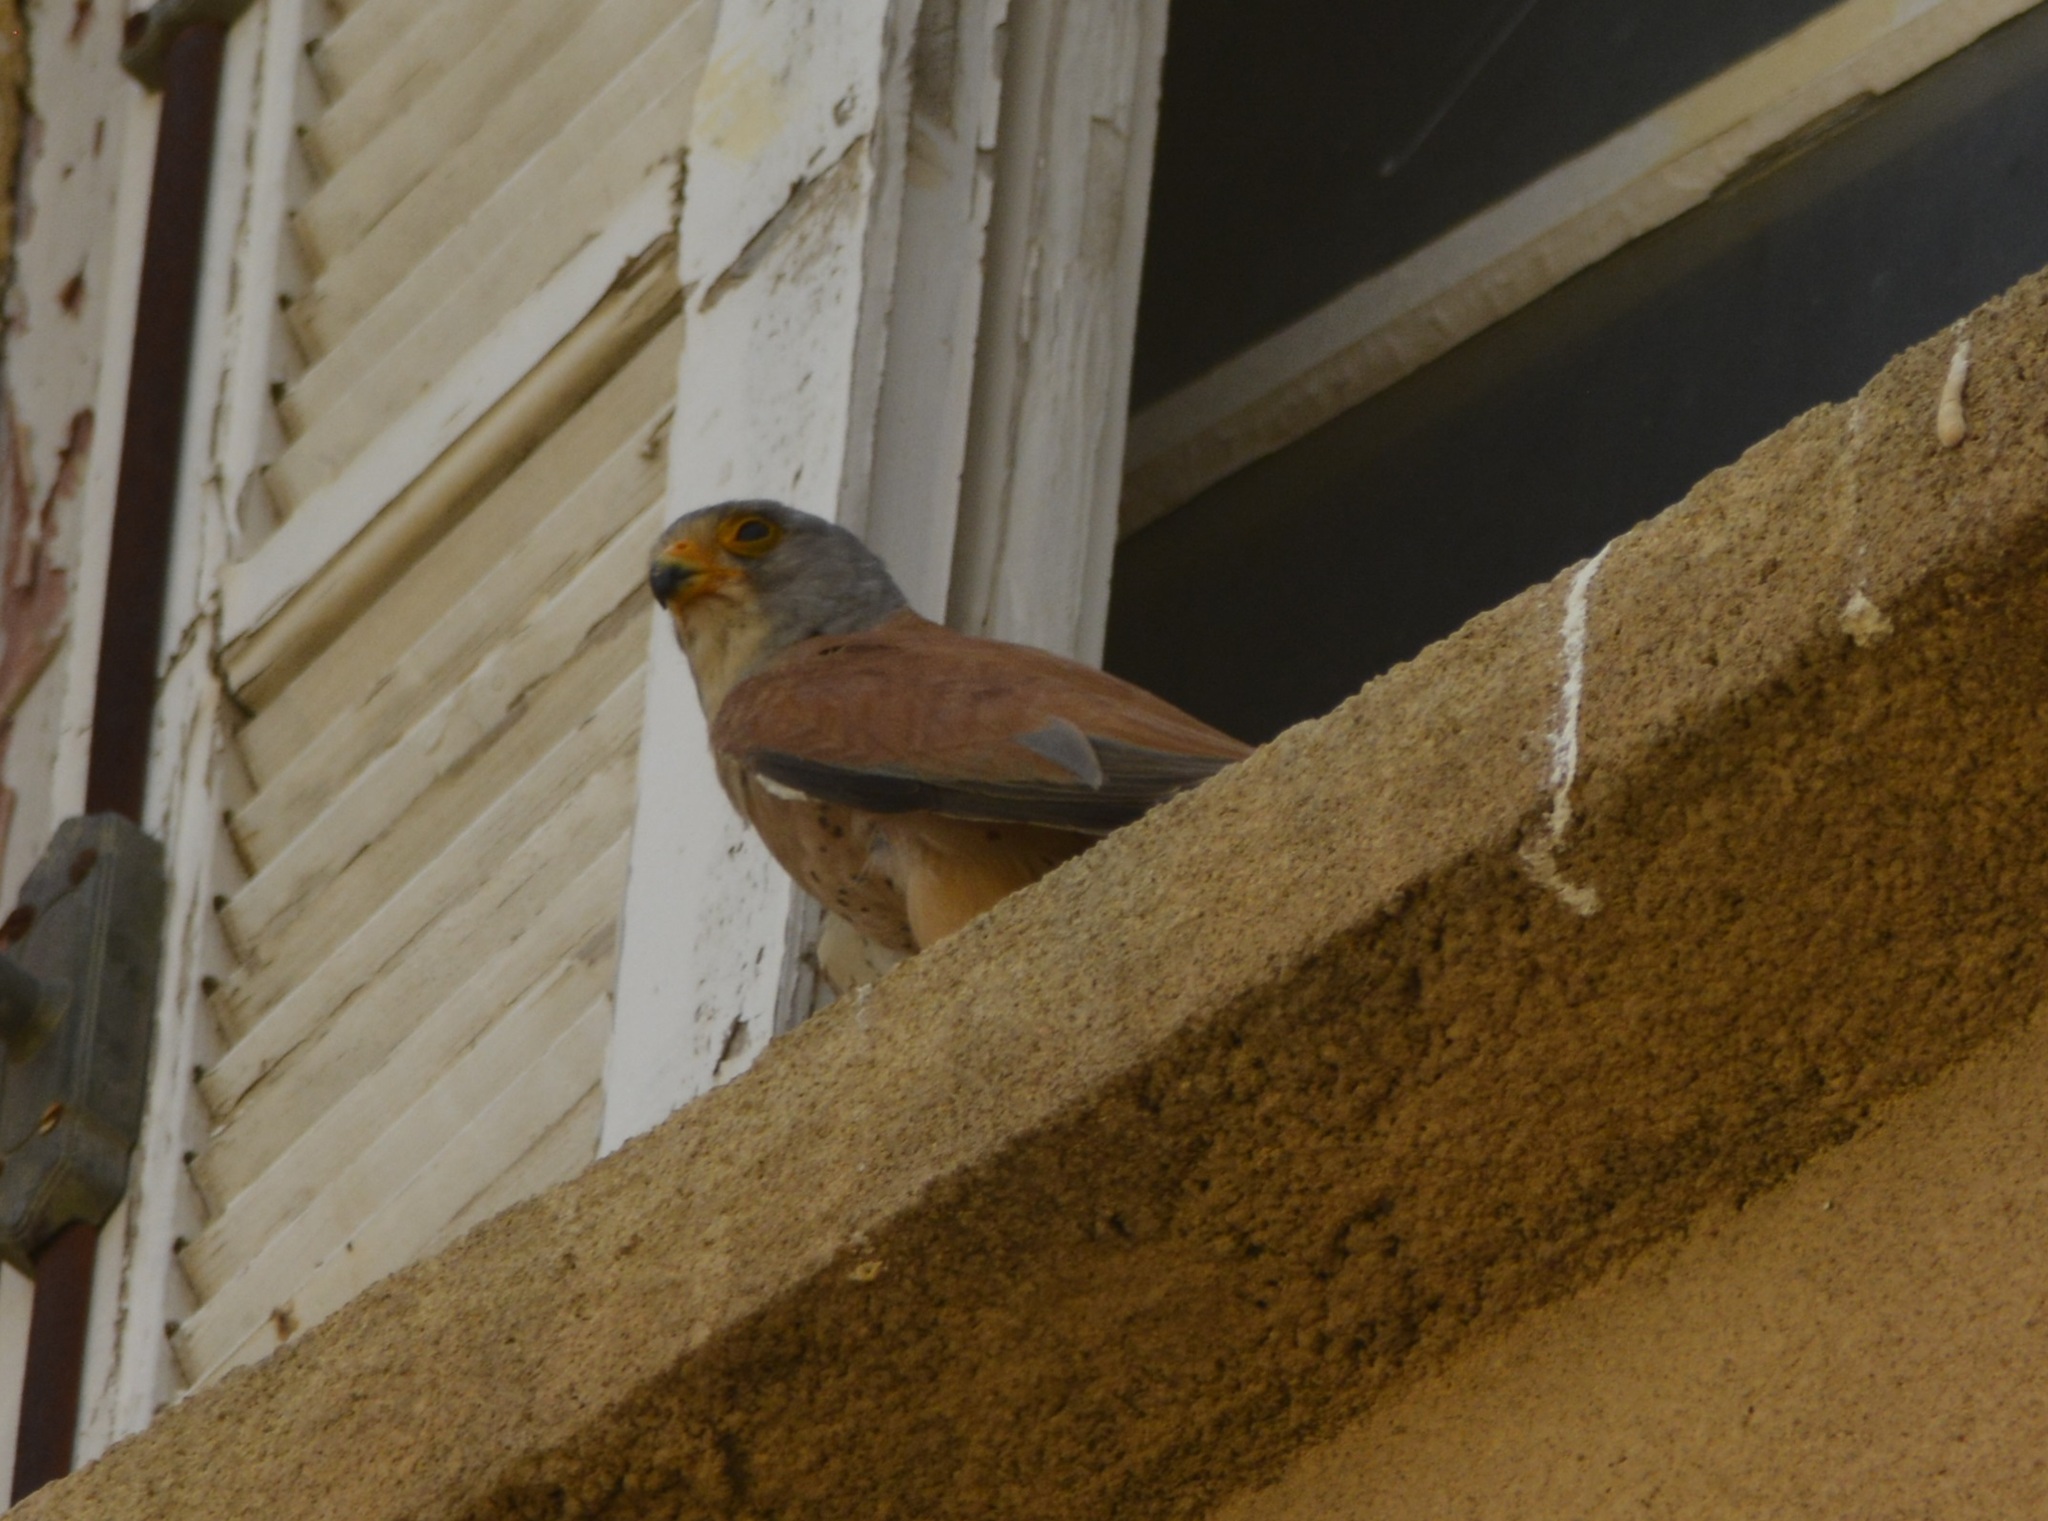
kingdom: Animalia
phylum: Chordata
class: Aves
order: Falconiformes
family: Falconidae
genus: Falco
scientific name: Falco naumanni
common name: Lesser kestrel
